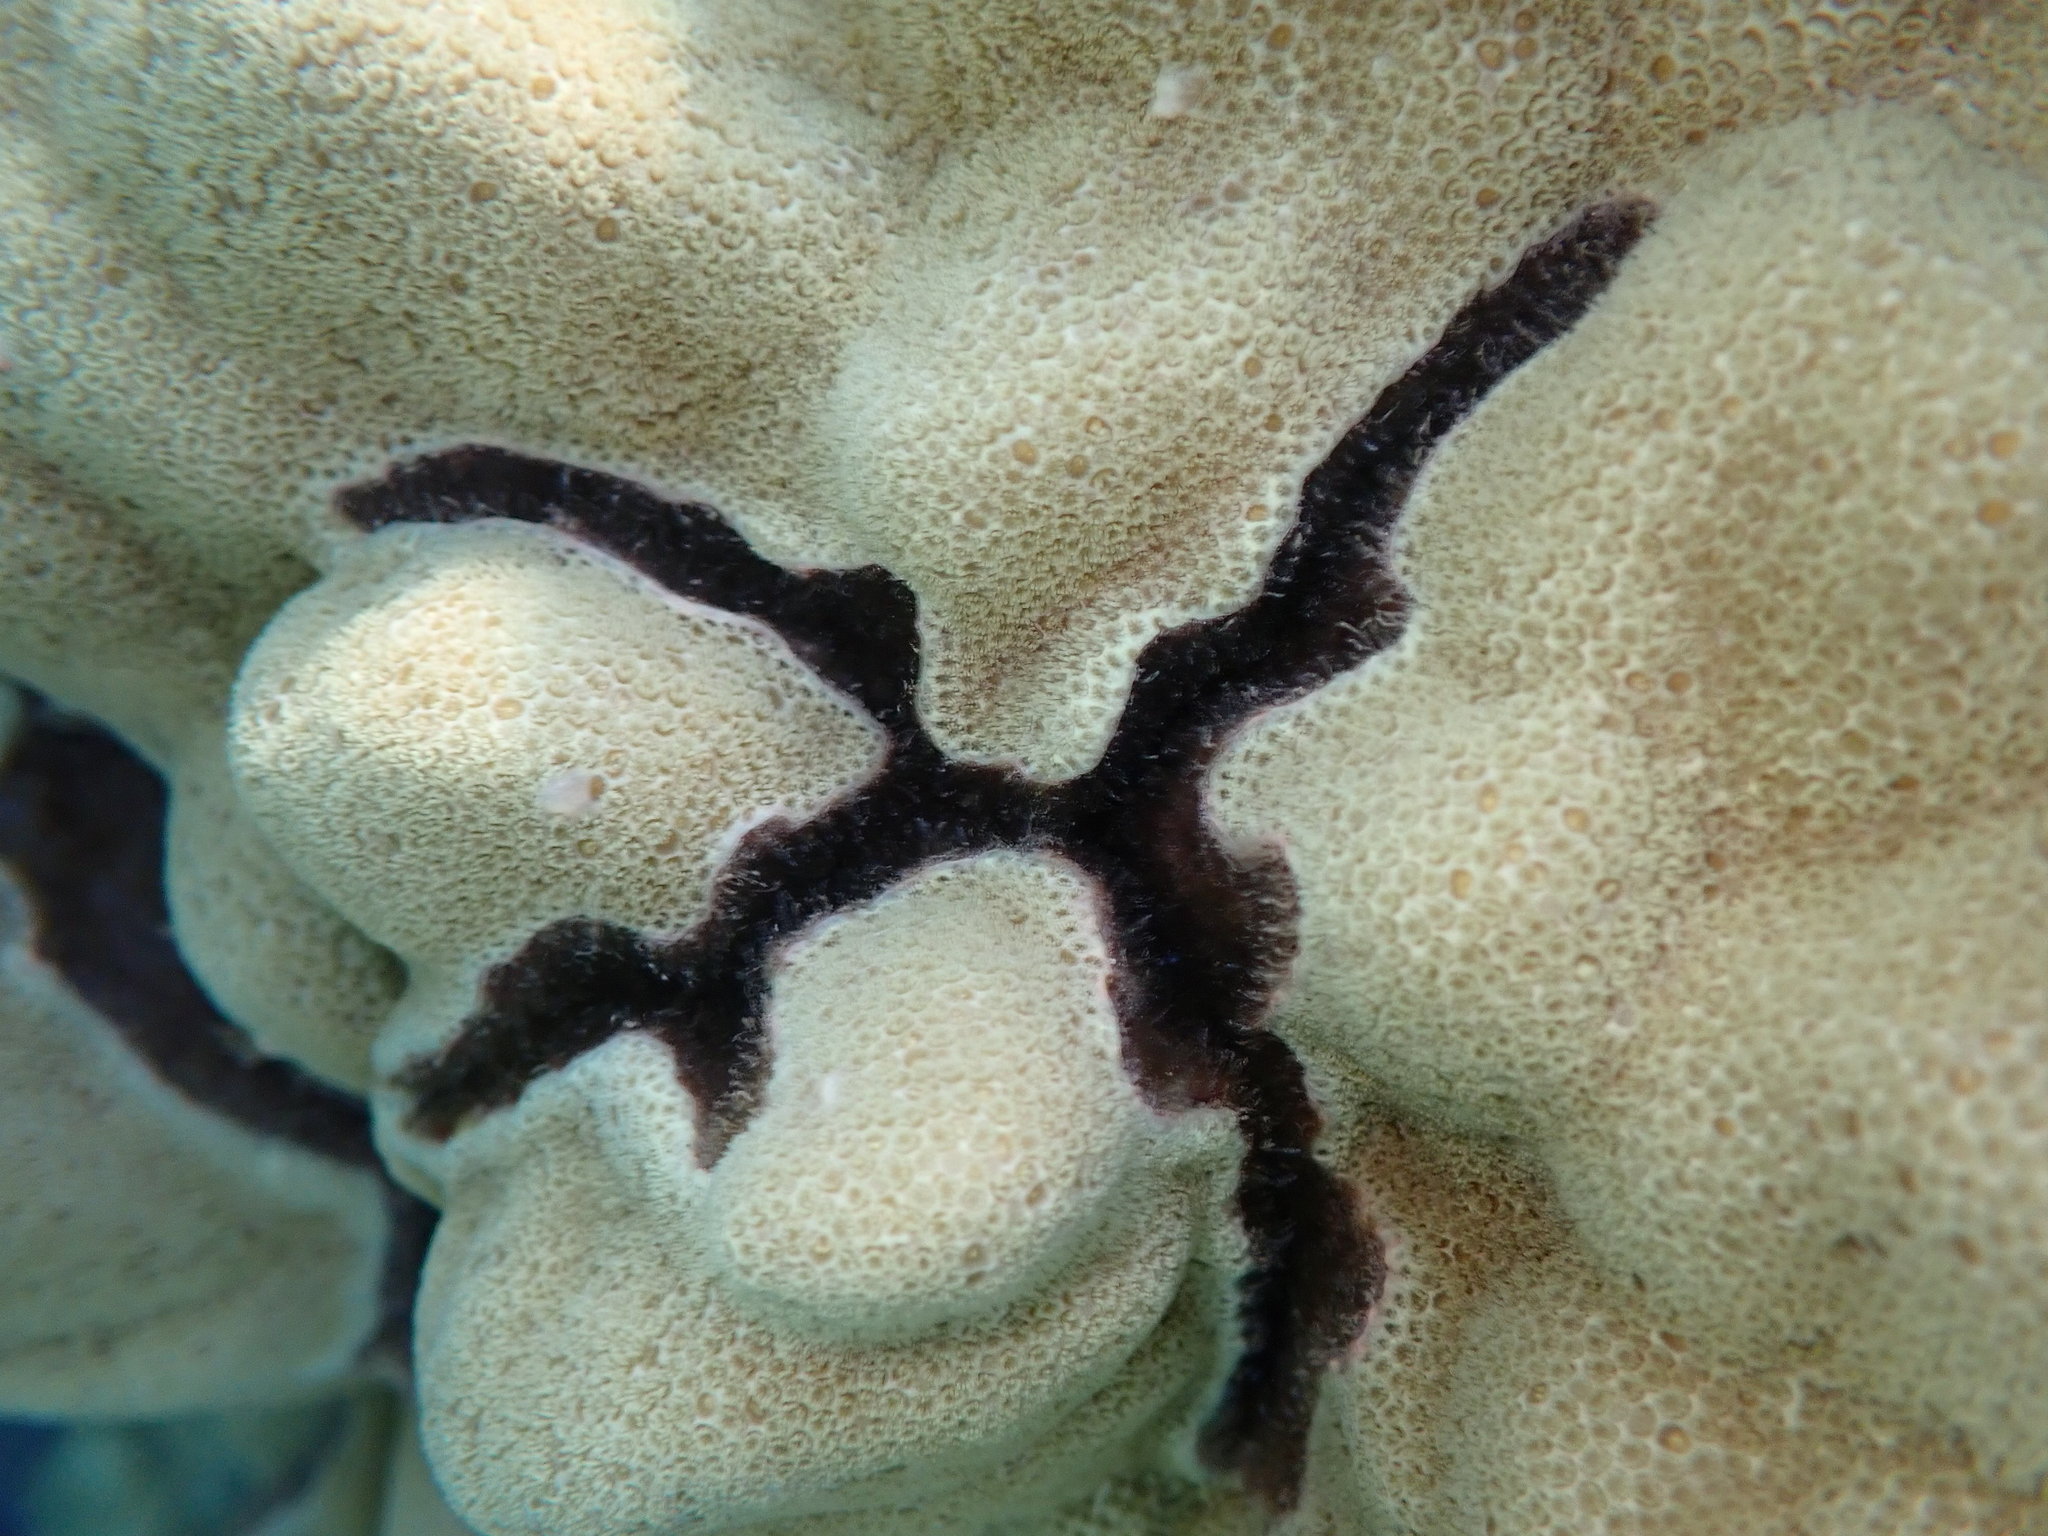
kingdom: Animalia
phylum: Arthropoda
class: Malacostraca
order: Decapoda
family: Alpheidae
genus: Alpheus
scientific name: Alpheus deuteropus
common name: Petroglyph shrimp
